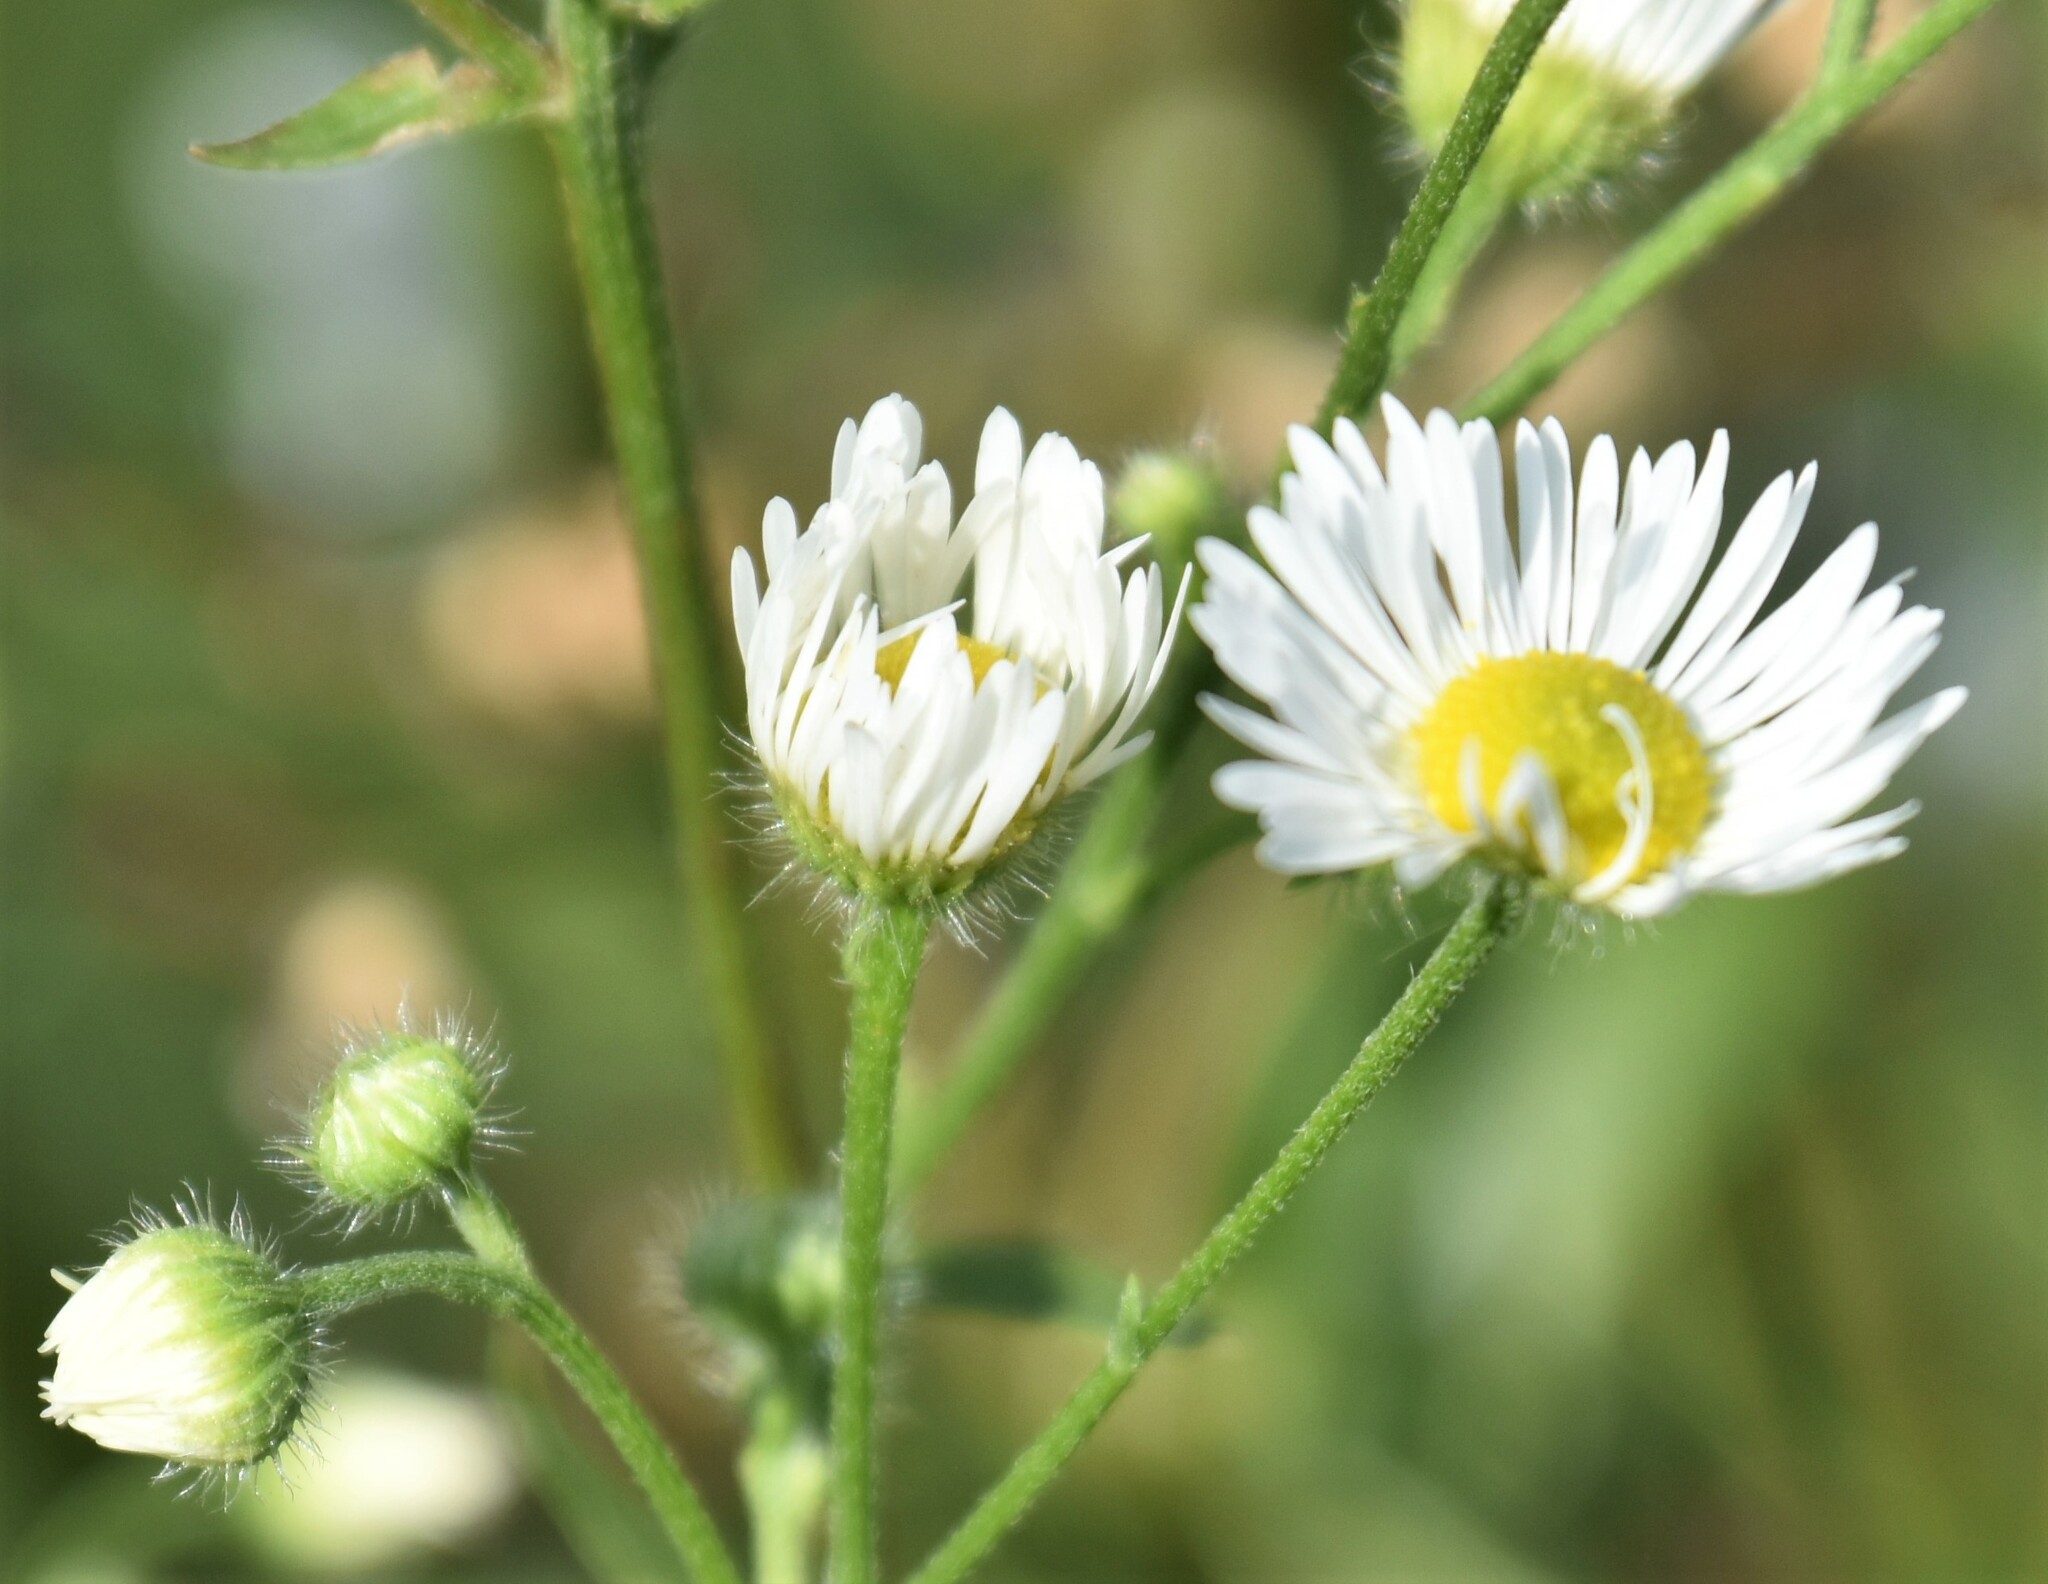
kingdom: Plantae
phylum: Tracheophyta
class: Magnoliopsida
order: Asterales
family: Asteraceae
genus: Erigeron
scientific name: Erigeron annuus
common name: Tall fleabane
